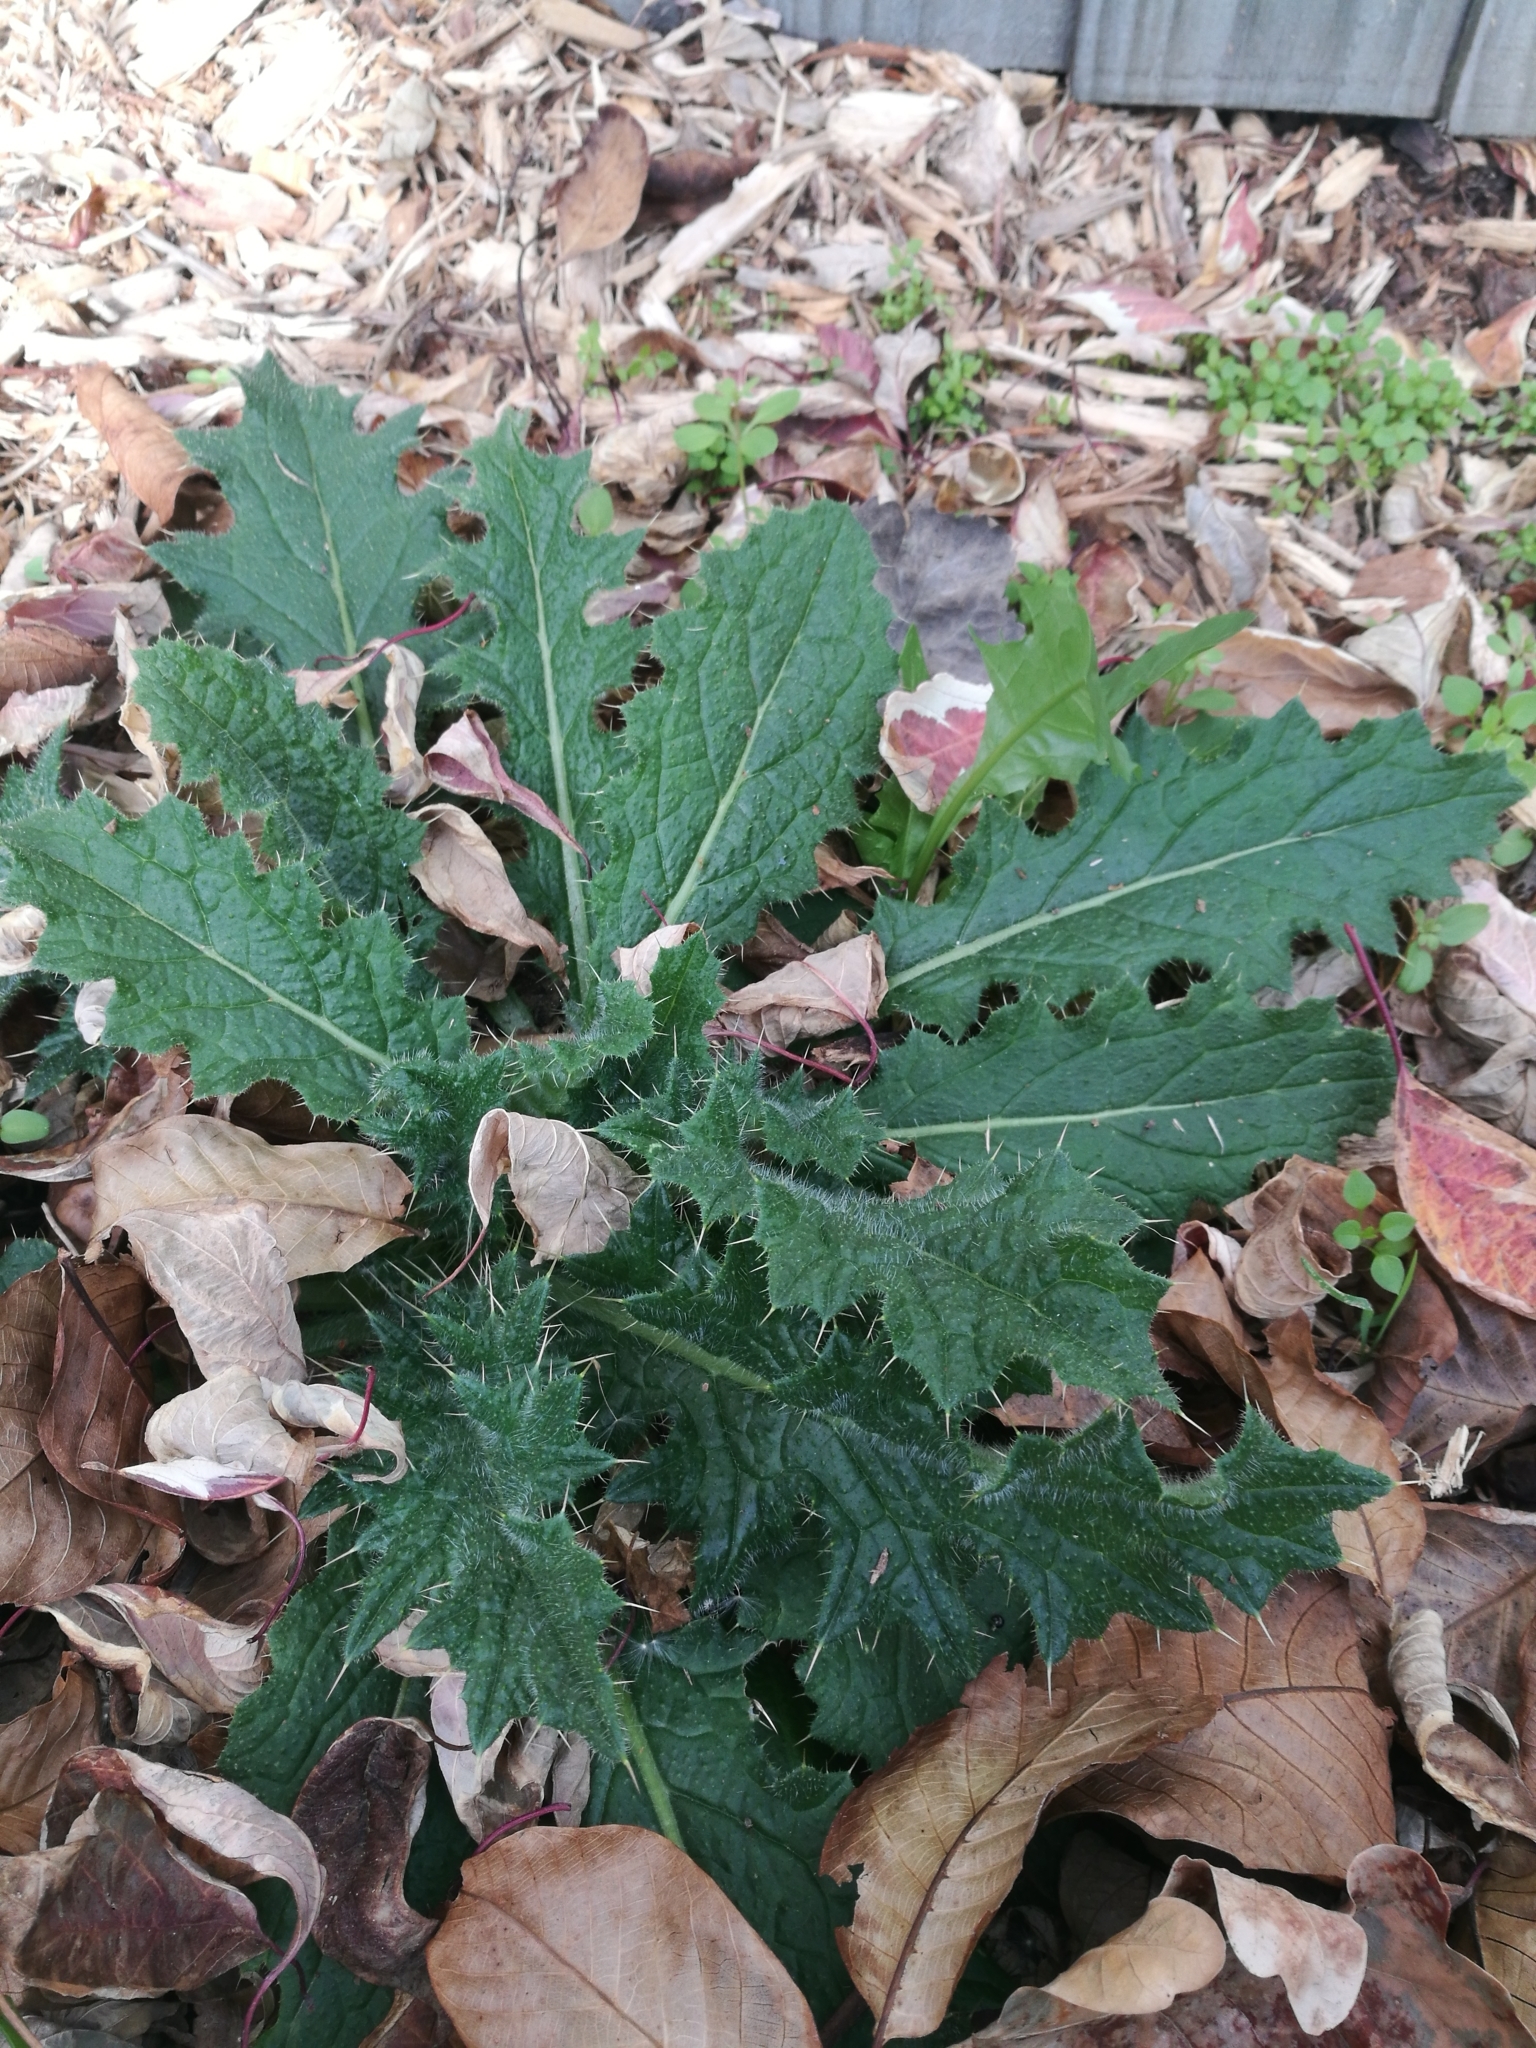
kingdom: Plantae
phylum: Tracheophyta
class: Magnoliopsida
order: Asterales
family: Asteraceae
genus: Cirsium
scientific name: Cirsium vulgare
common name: Bull thistle
